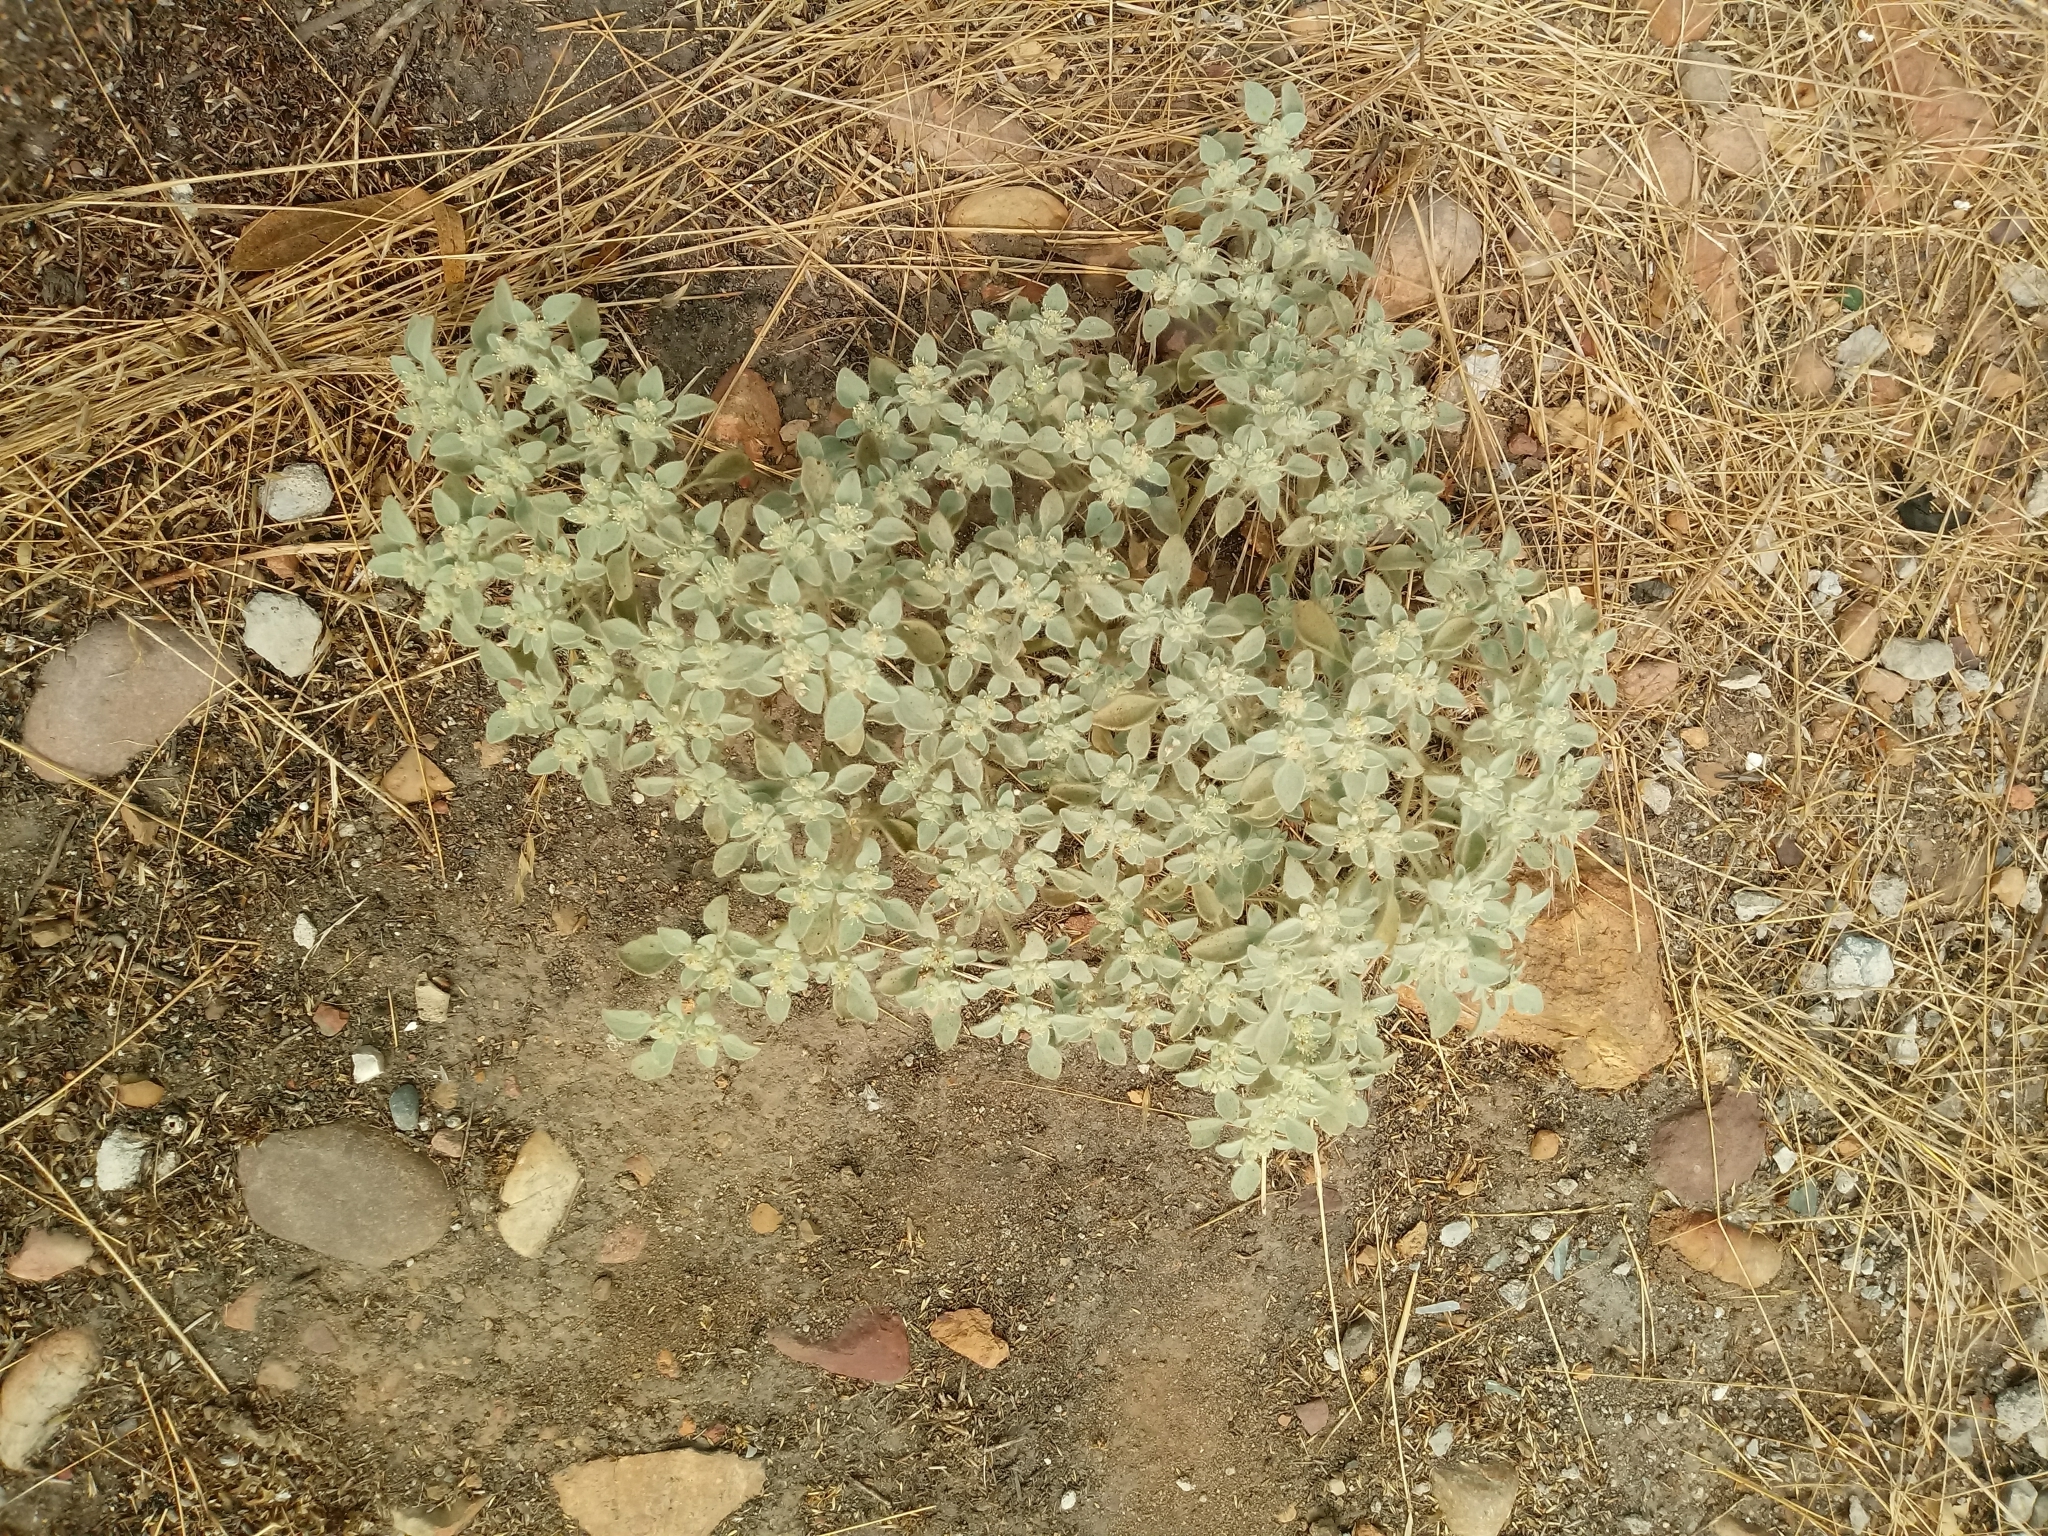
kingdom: Plantae
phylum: Tracheophyta
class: Magnoliopsida
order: Malpighiales
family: Euphorbiaceae
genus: Croton
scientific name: Croton setiger
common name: Dove weed
